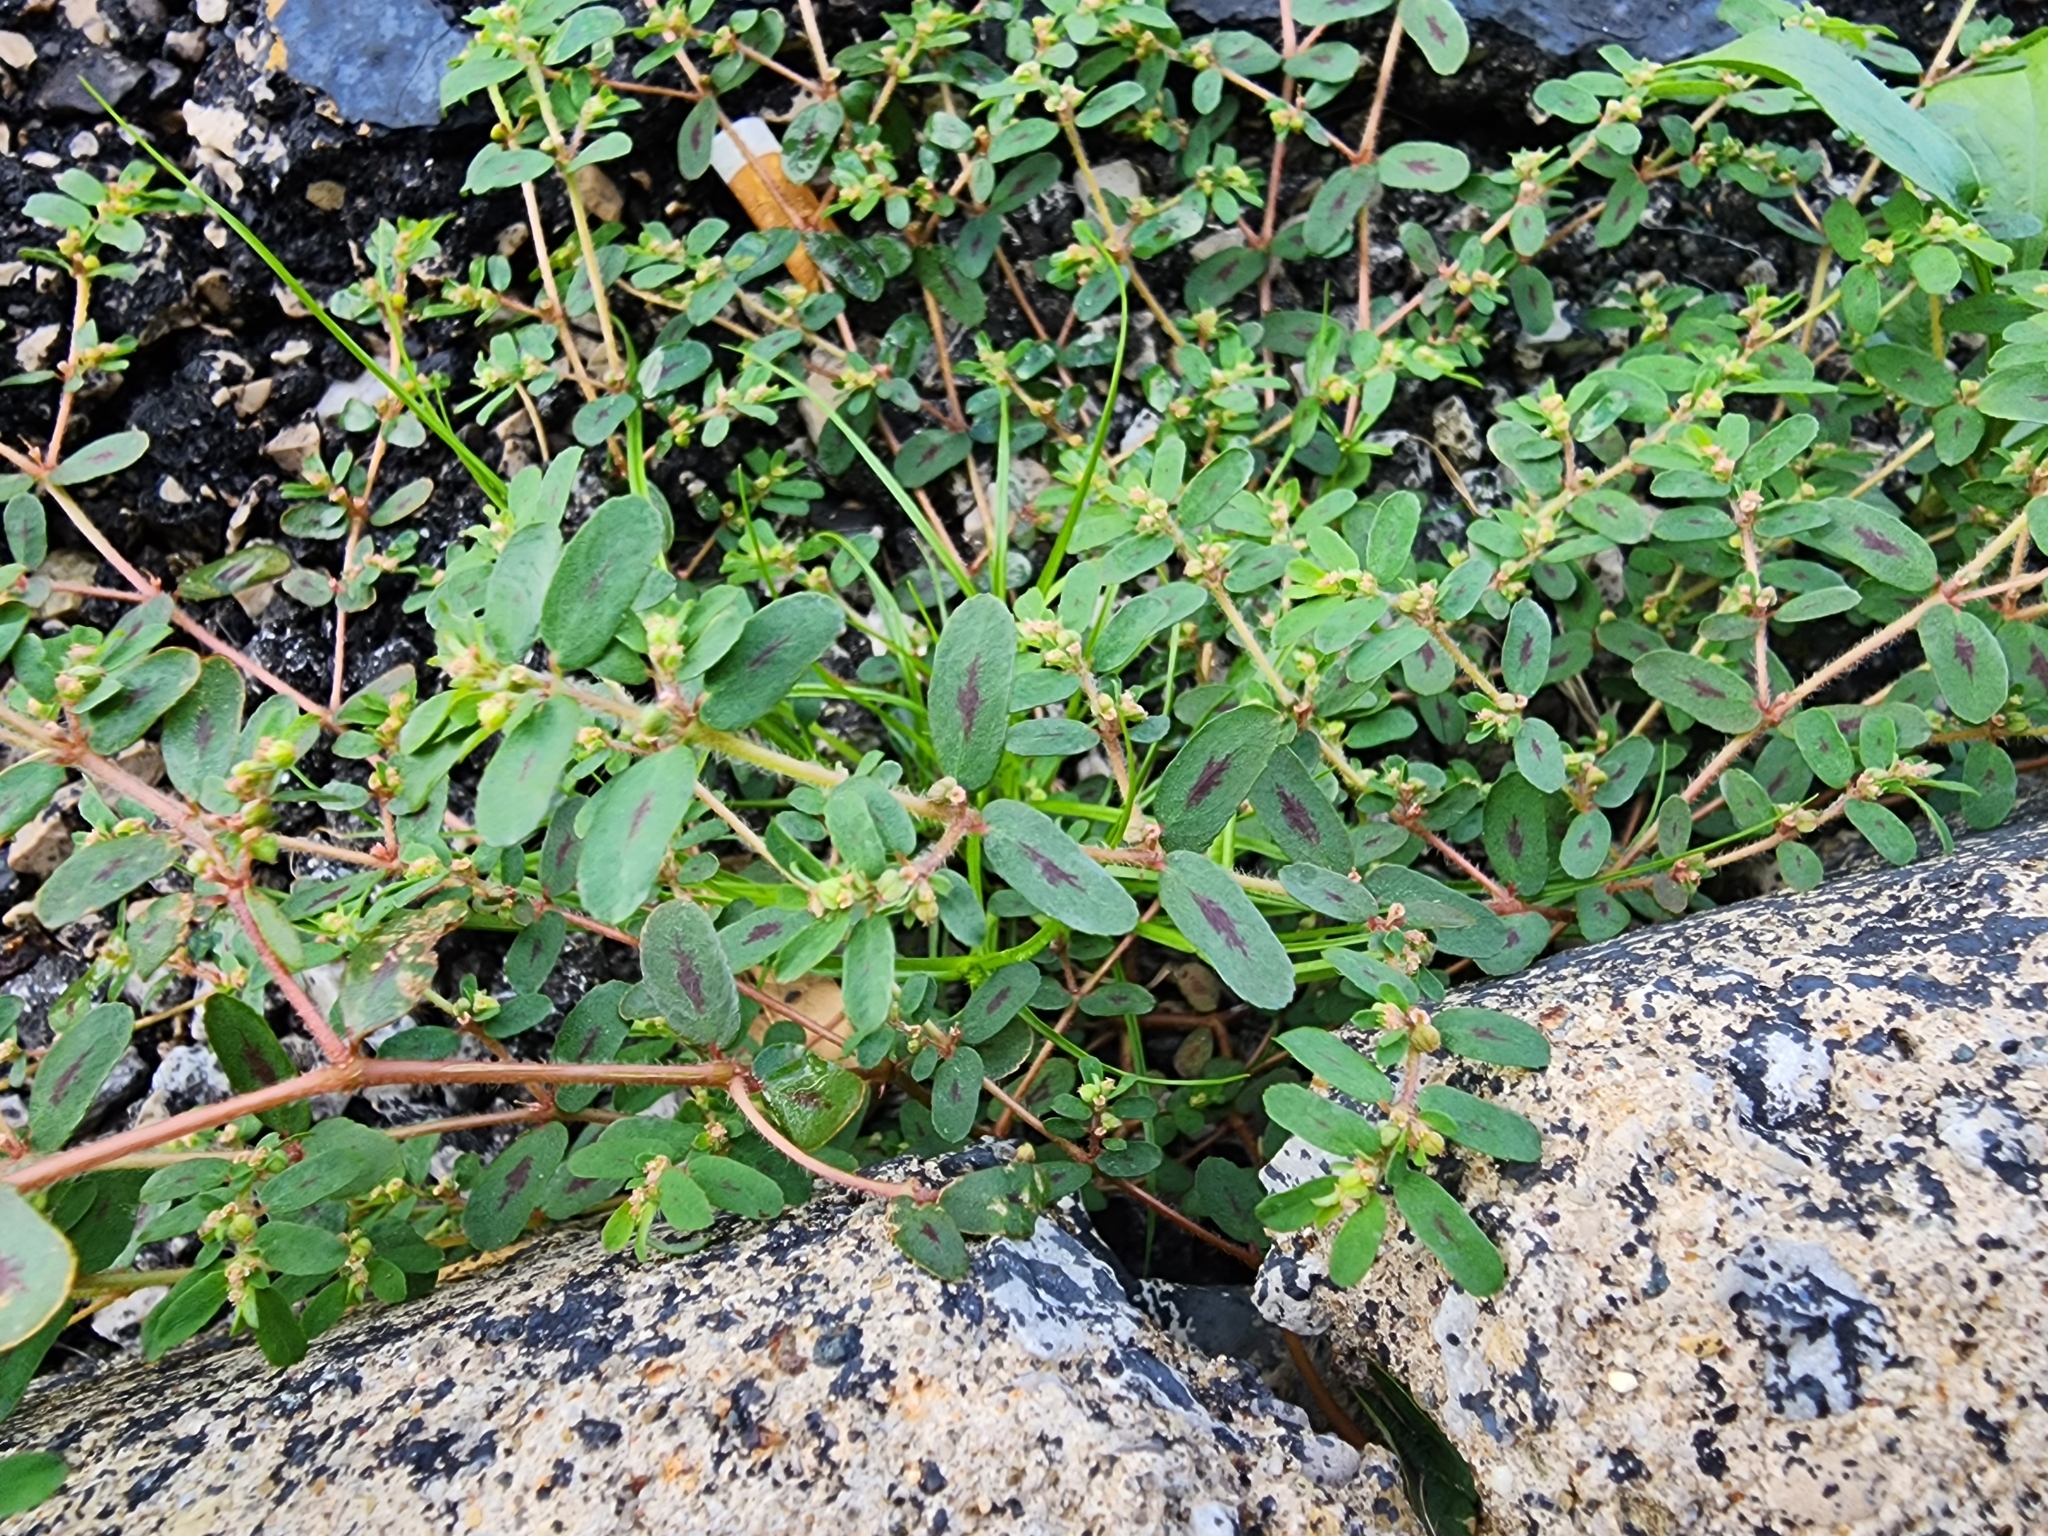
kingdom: Plantae
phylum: Tracheophyta
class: Magnoliopsida
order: Malpighiales
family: Euphorbiaceae
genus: Euphorbia
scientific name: Euphorbia maculata
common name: Spotted spurge
